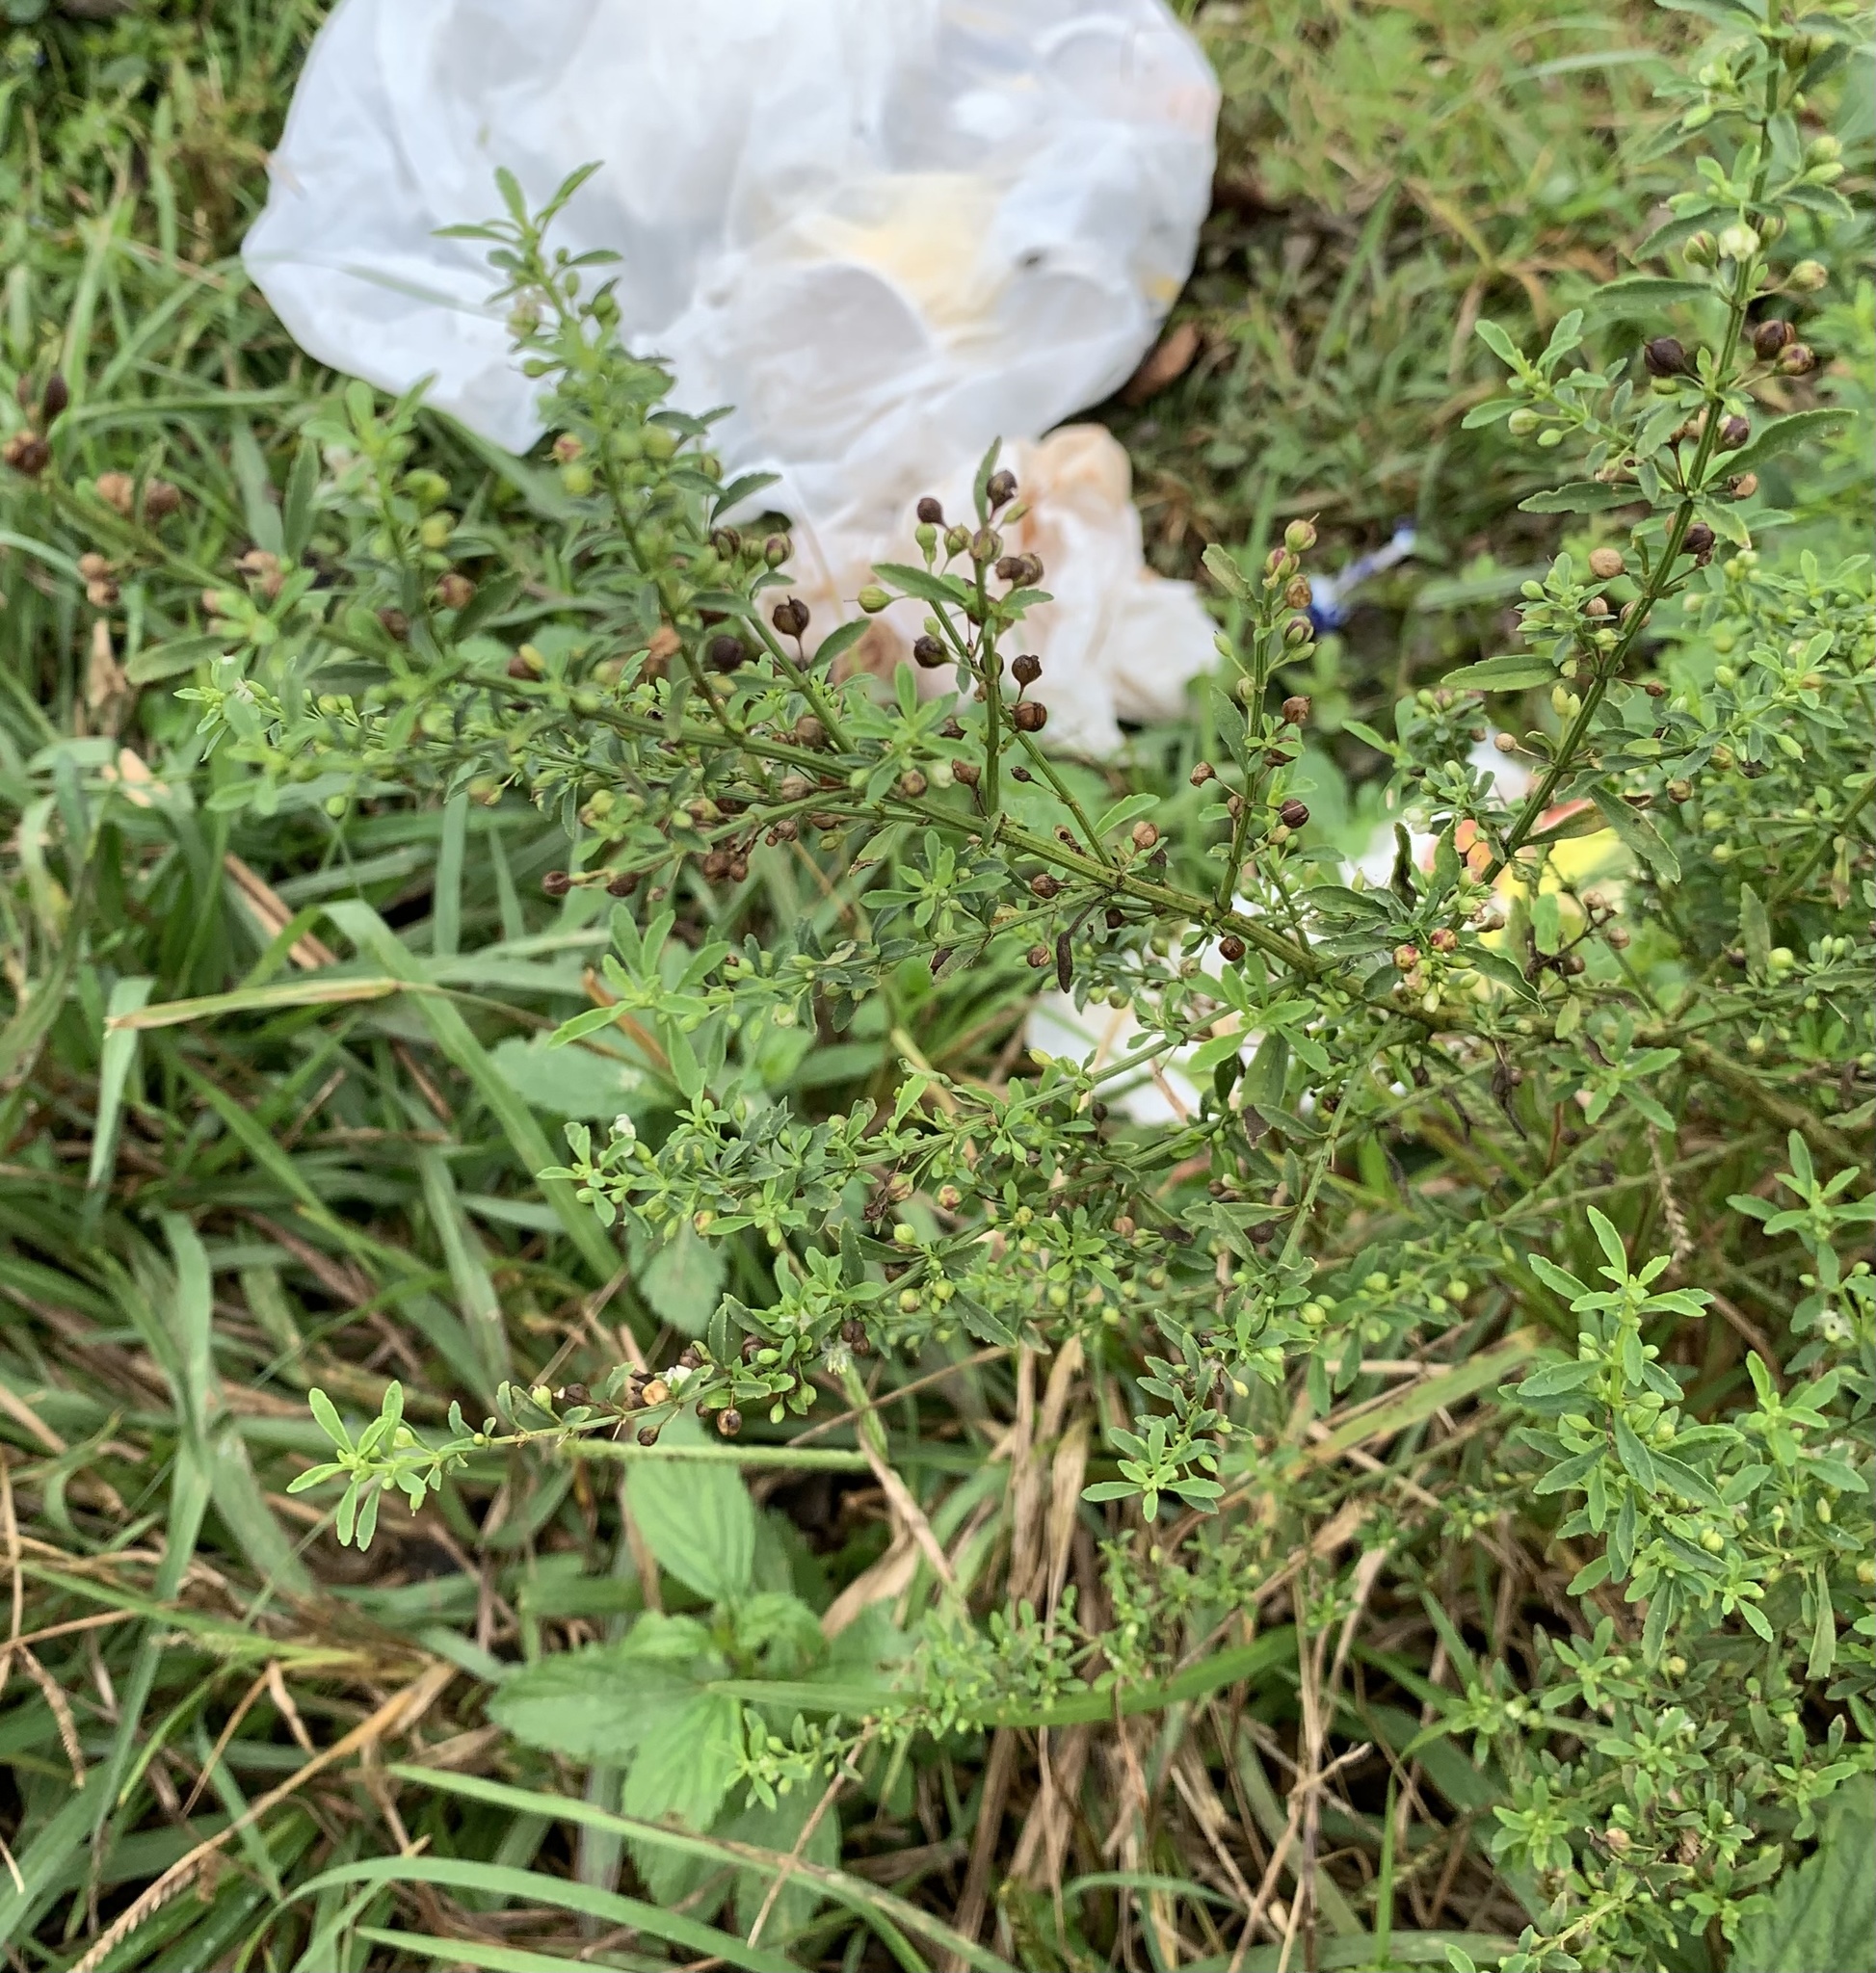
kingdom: Plantae
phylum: Tracheophyta
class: Magnoliopsida
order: Lamiales
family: Plantaginaceae
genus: Scoparia
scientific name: Scoparia dulcis
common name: Scoparia-weed
